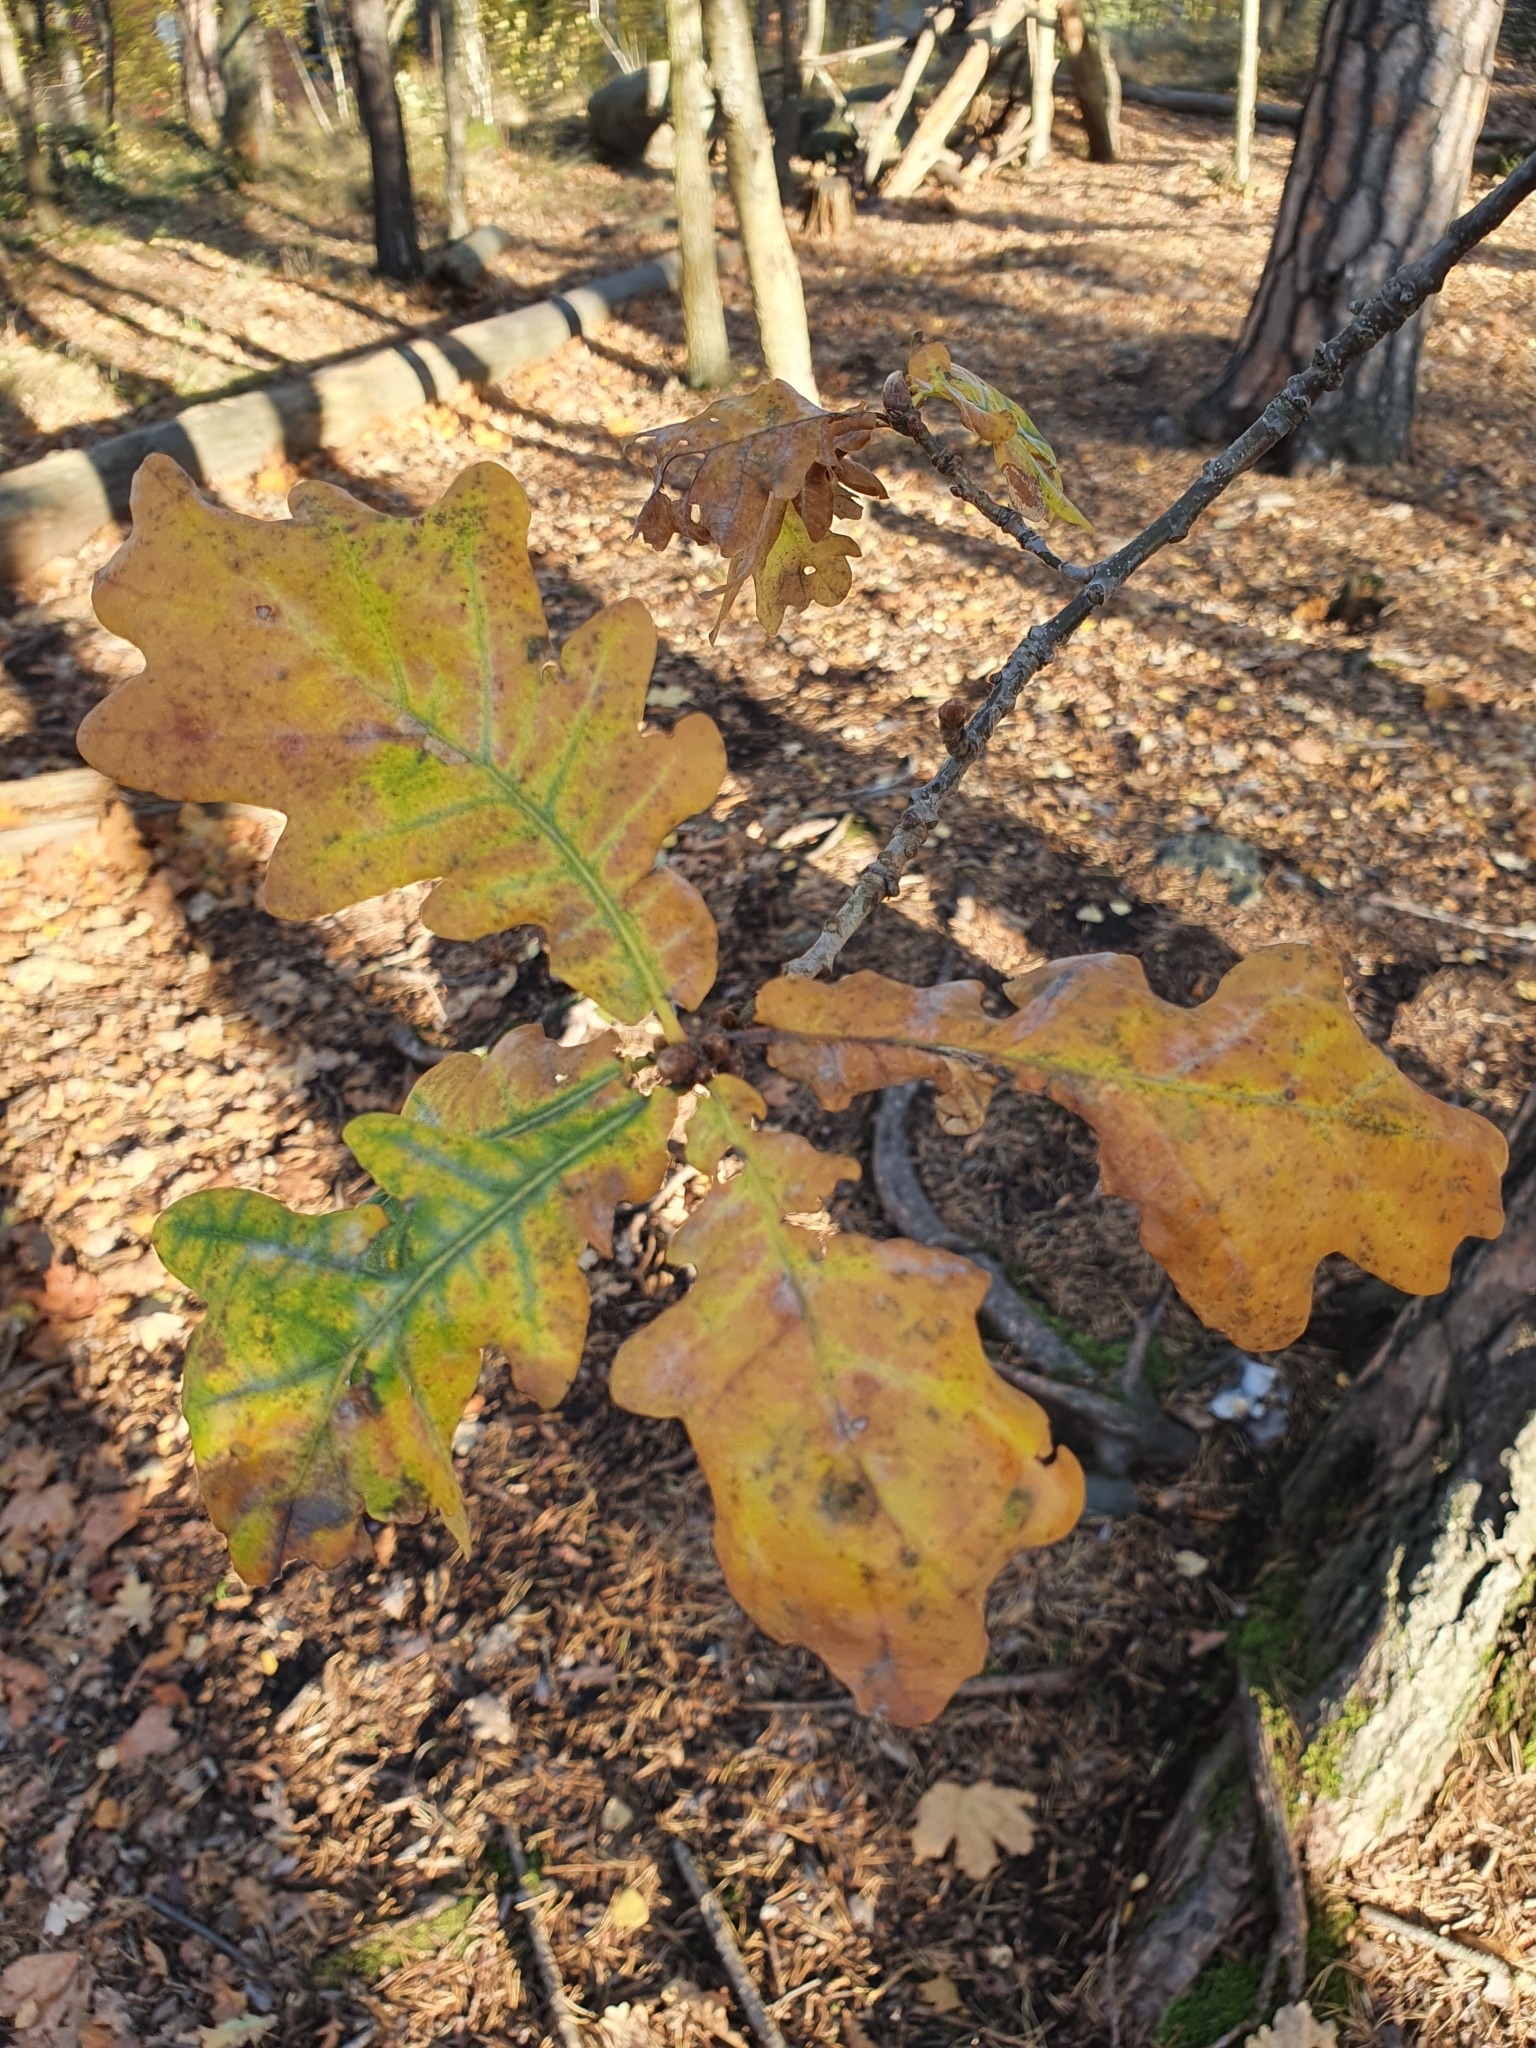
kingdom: Plantae
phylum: Tracheophyta
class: Magnoliopsida
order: Fagales
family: Fagaceae
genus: Quercus
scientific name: Quercus robur
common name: Pedunculate oak
